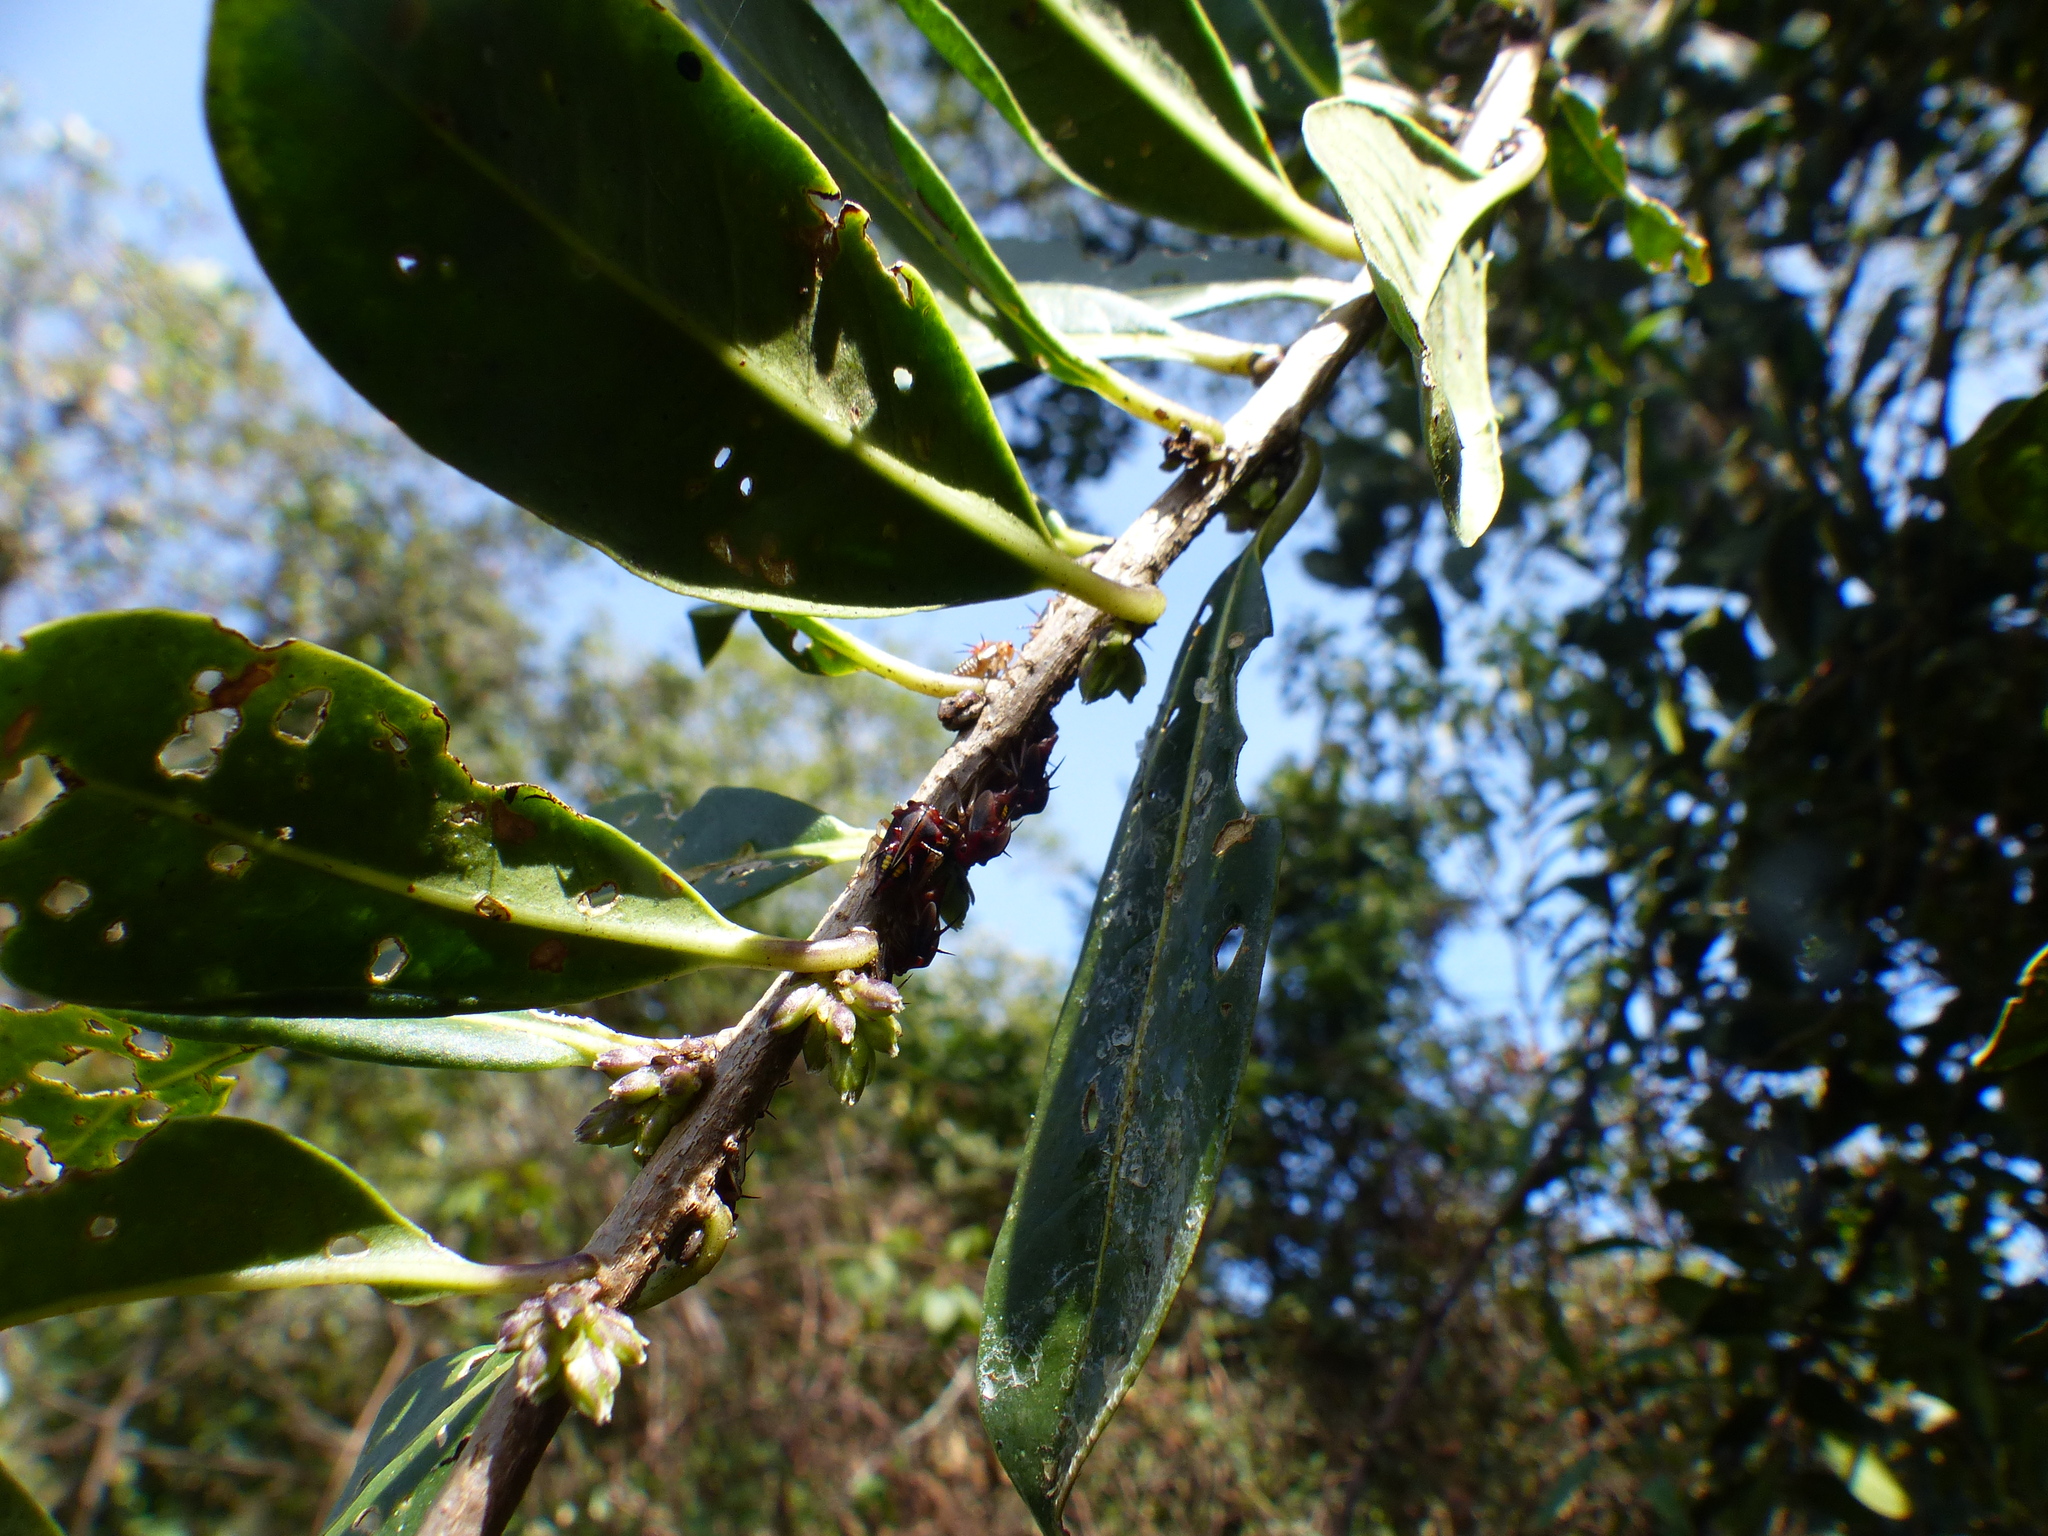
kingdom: Animalia
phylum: Arthropoda
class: Insecta
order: Hemiptera
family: Membracidae
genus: Alchisme
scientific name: Alchisme inermis
